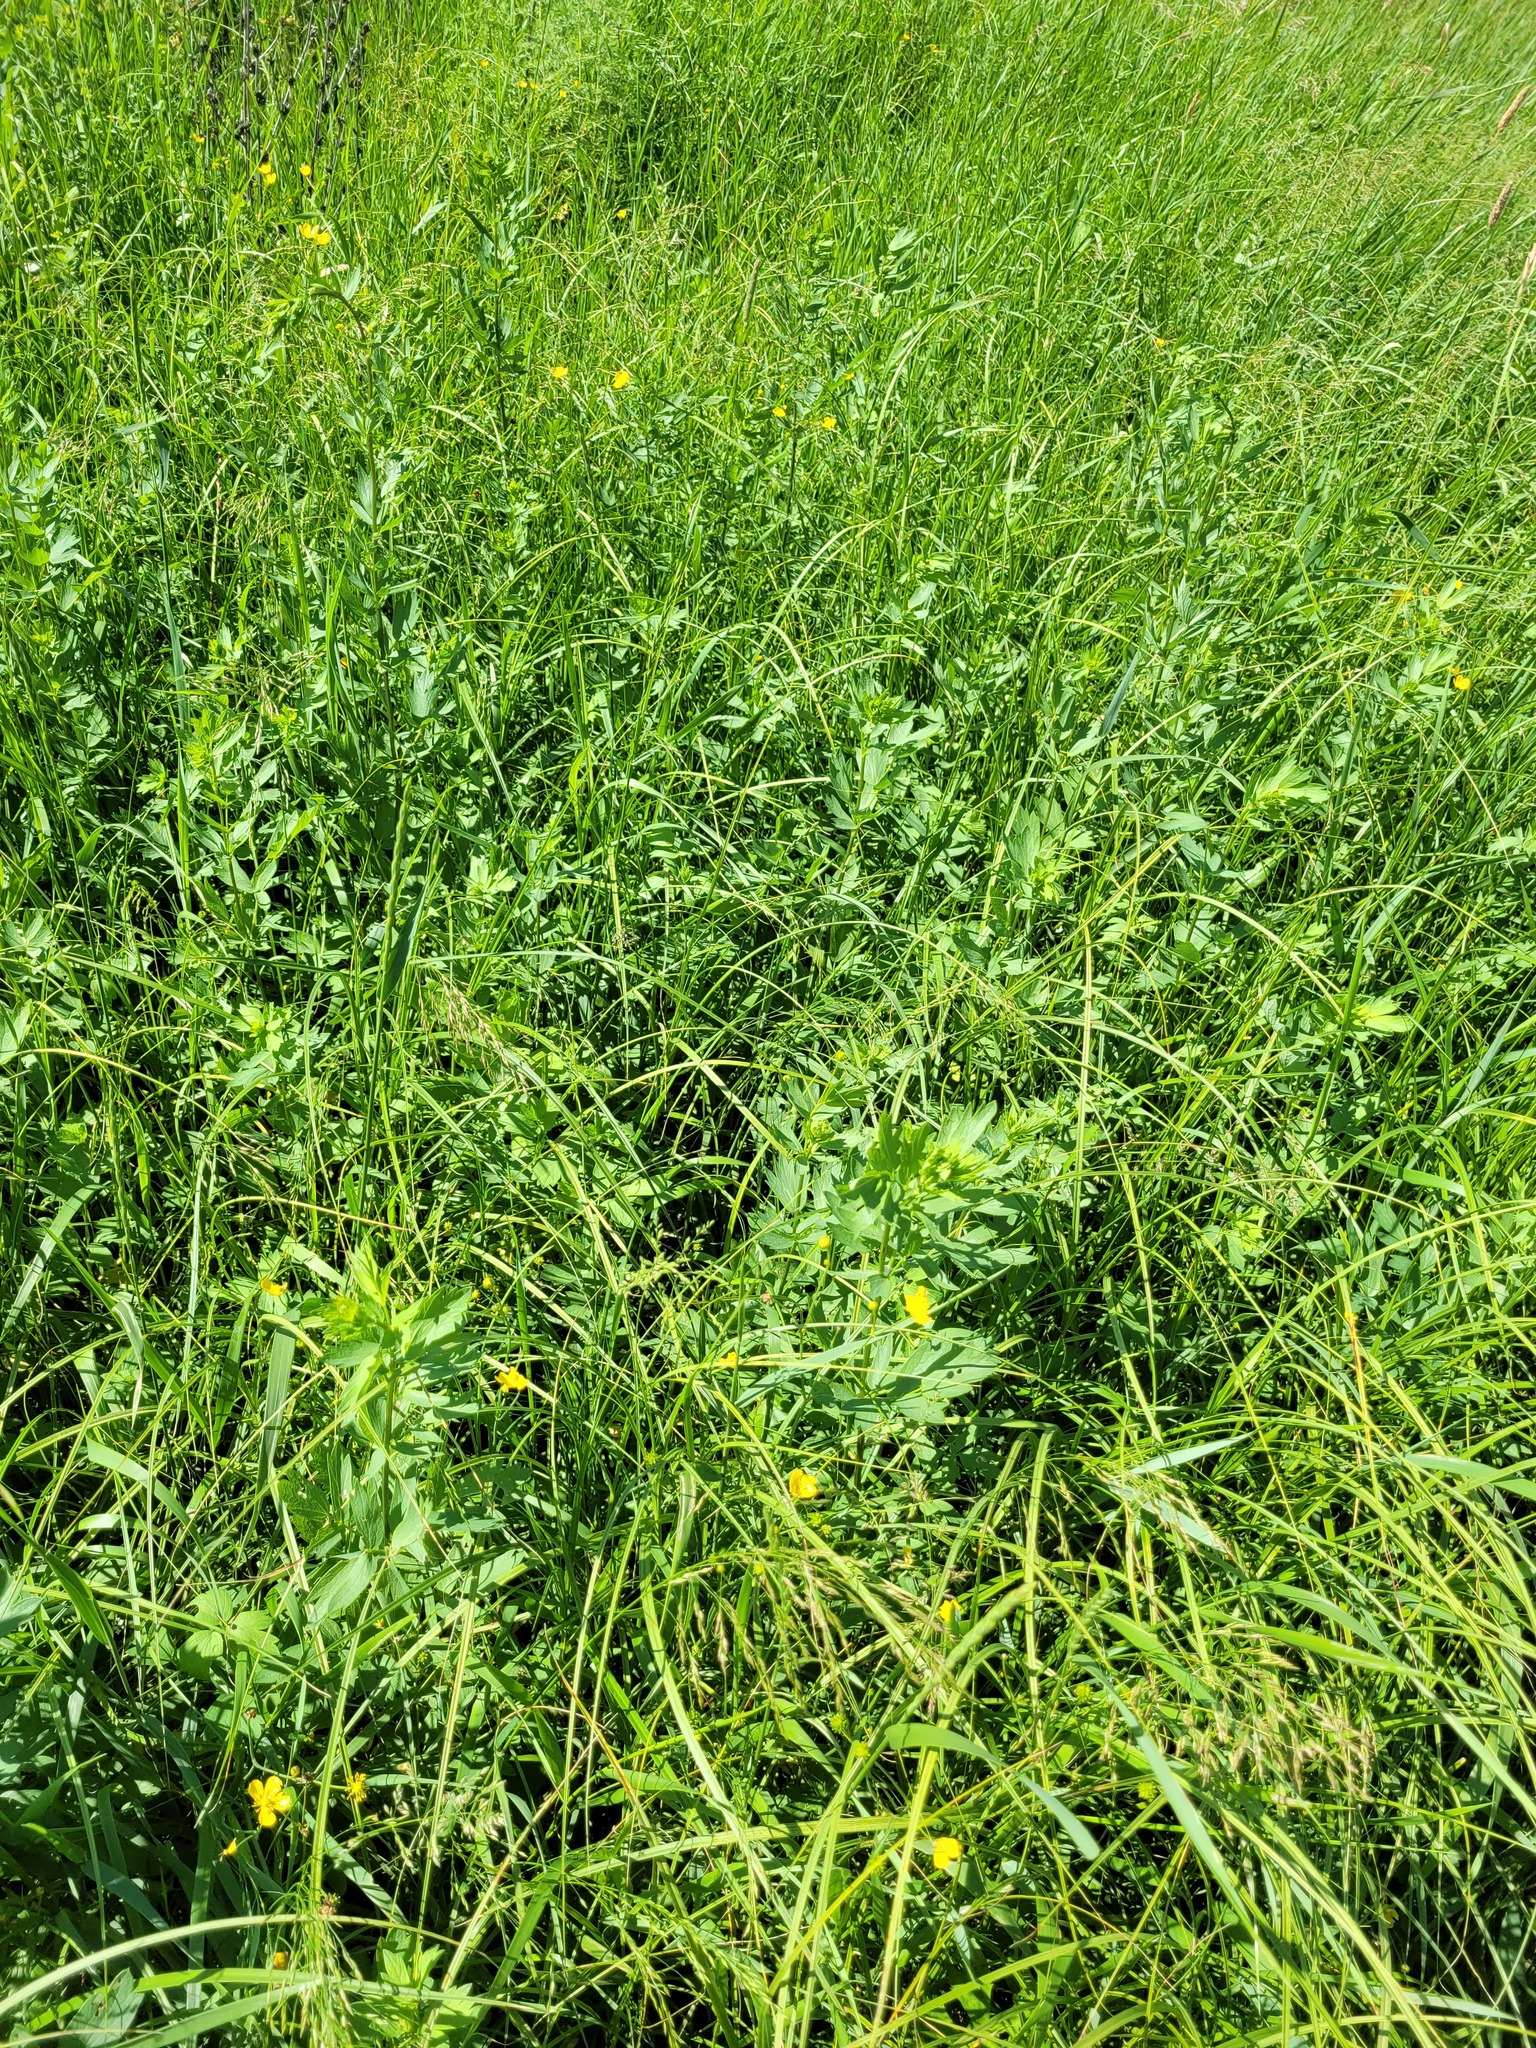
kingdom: Plantae
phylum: Tracheophyta
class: Magnoliopsida
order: Ranunculales
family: Ranunculaceae
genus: Thalictrum
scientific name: Thalictrum flavum
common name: Common meadow-rue
